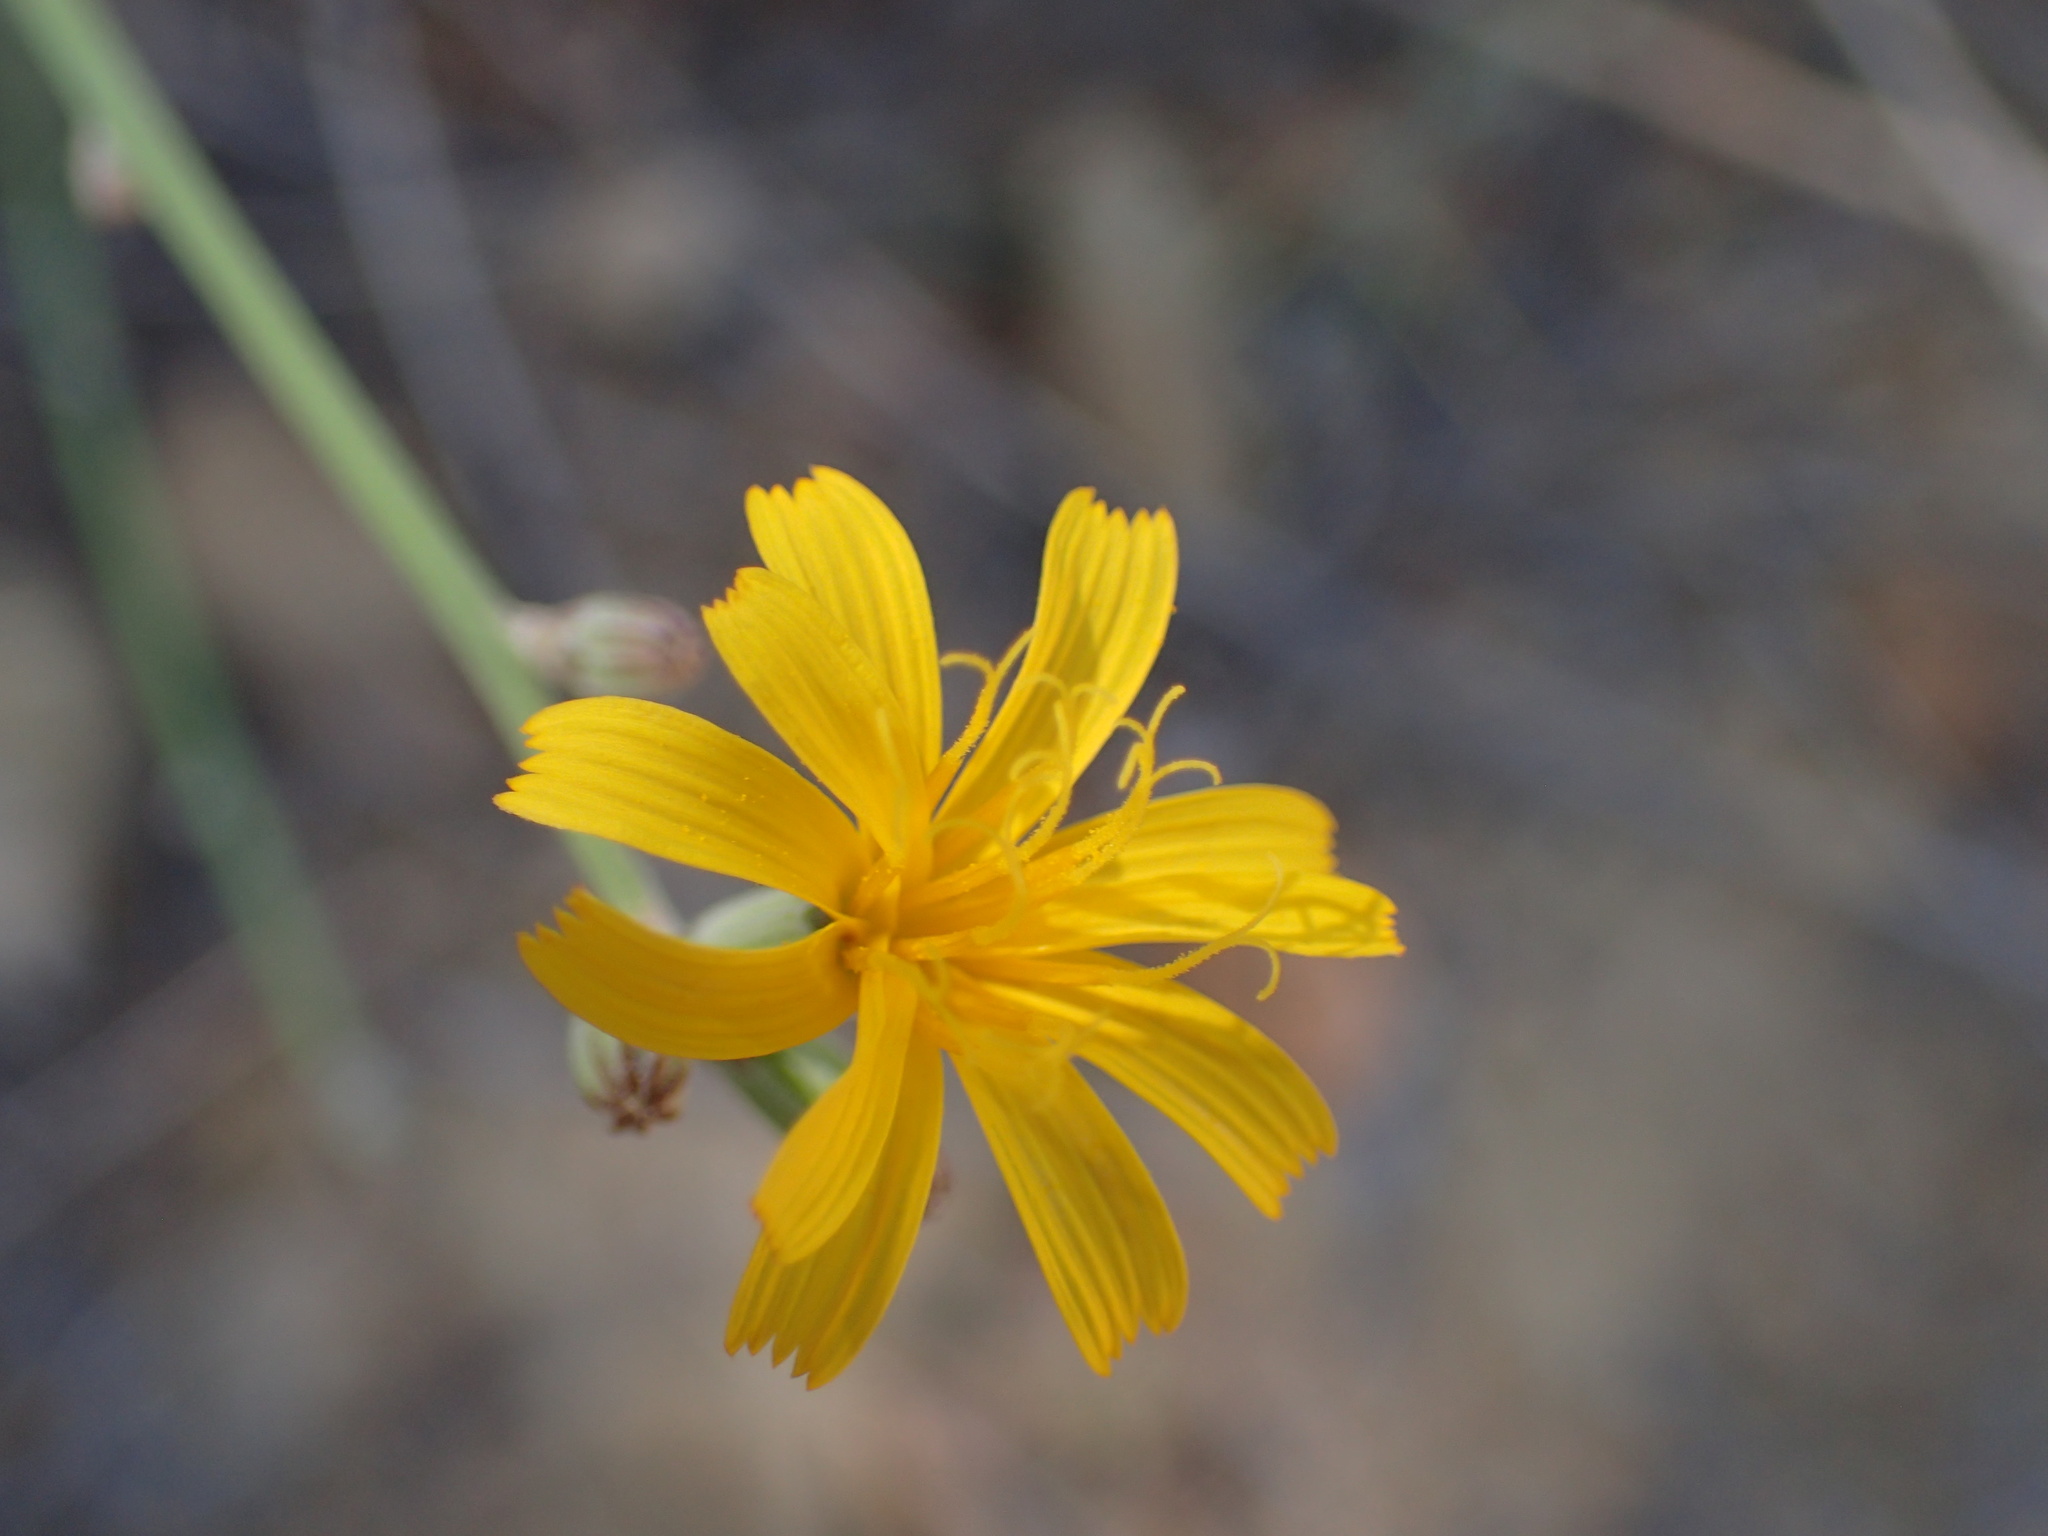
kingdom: Plantae
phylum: Tracheophyta
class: Magnoliopsida
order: Asterales
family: Asteraceae
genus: Chondrilla
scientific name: Chondrilla juncea
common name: Skeleton weed
